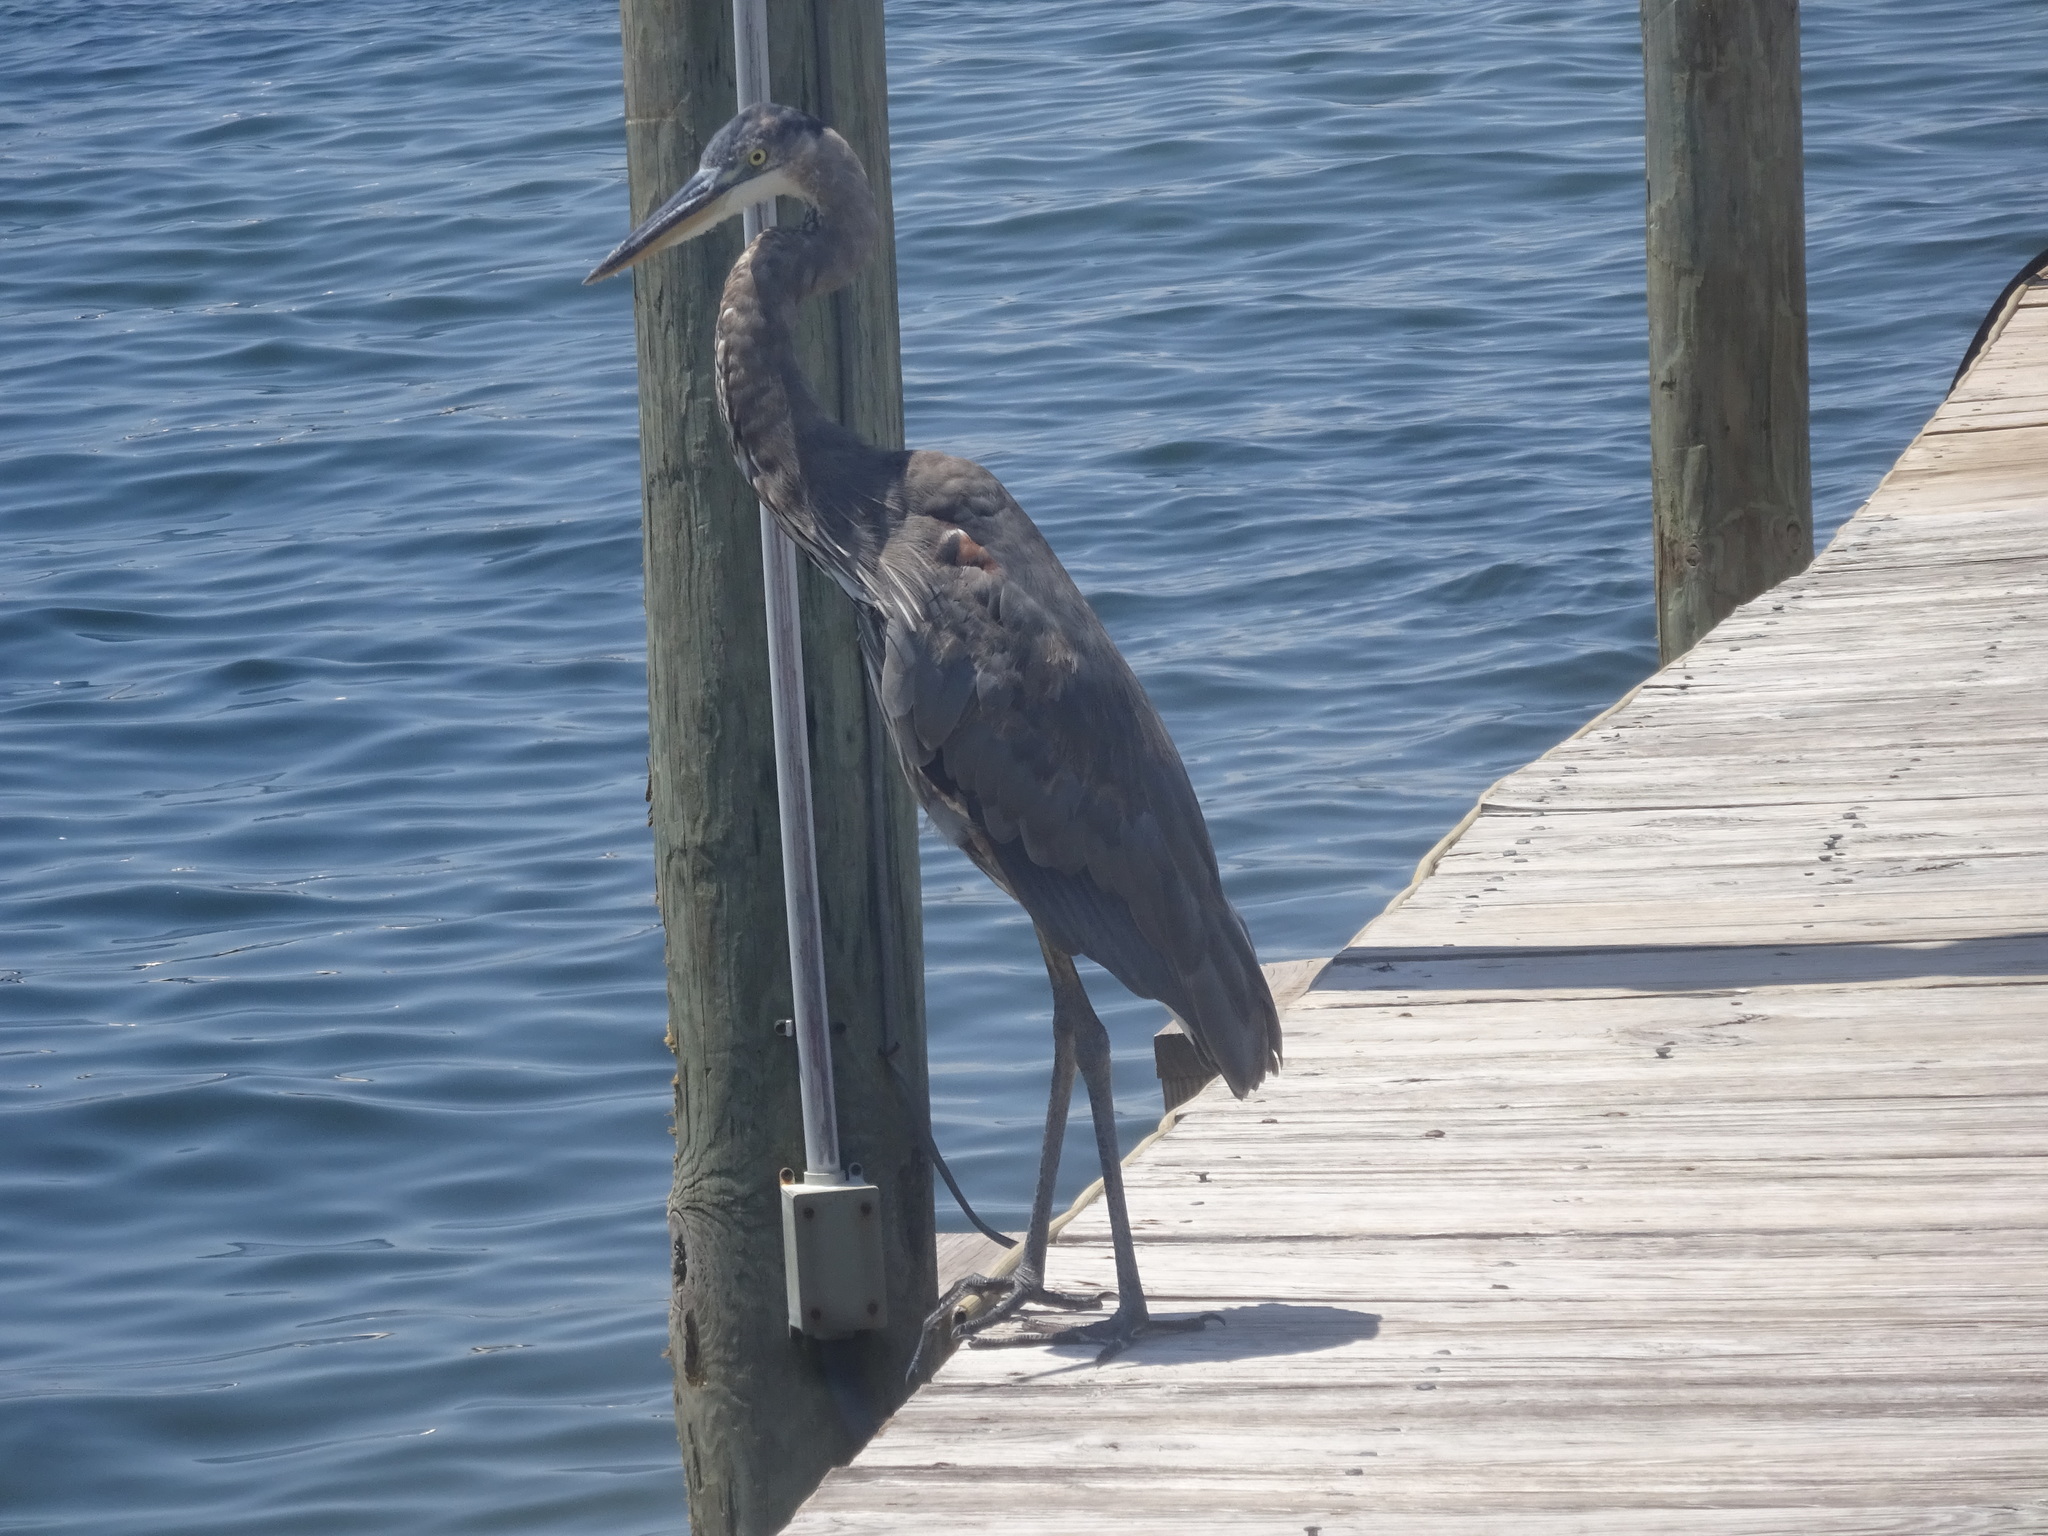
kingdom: Animalia
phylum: Chordata
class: Aves
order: Pelecaniformes
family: Ardeidae
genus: Ardea
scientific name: Ardea herodias
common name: Great blue heron
